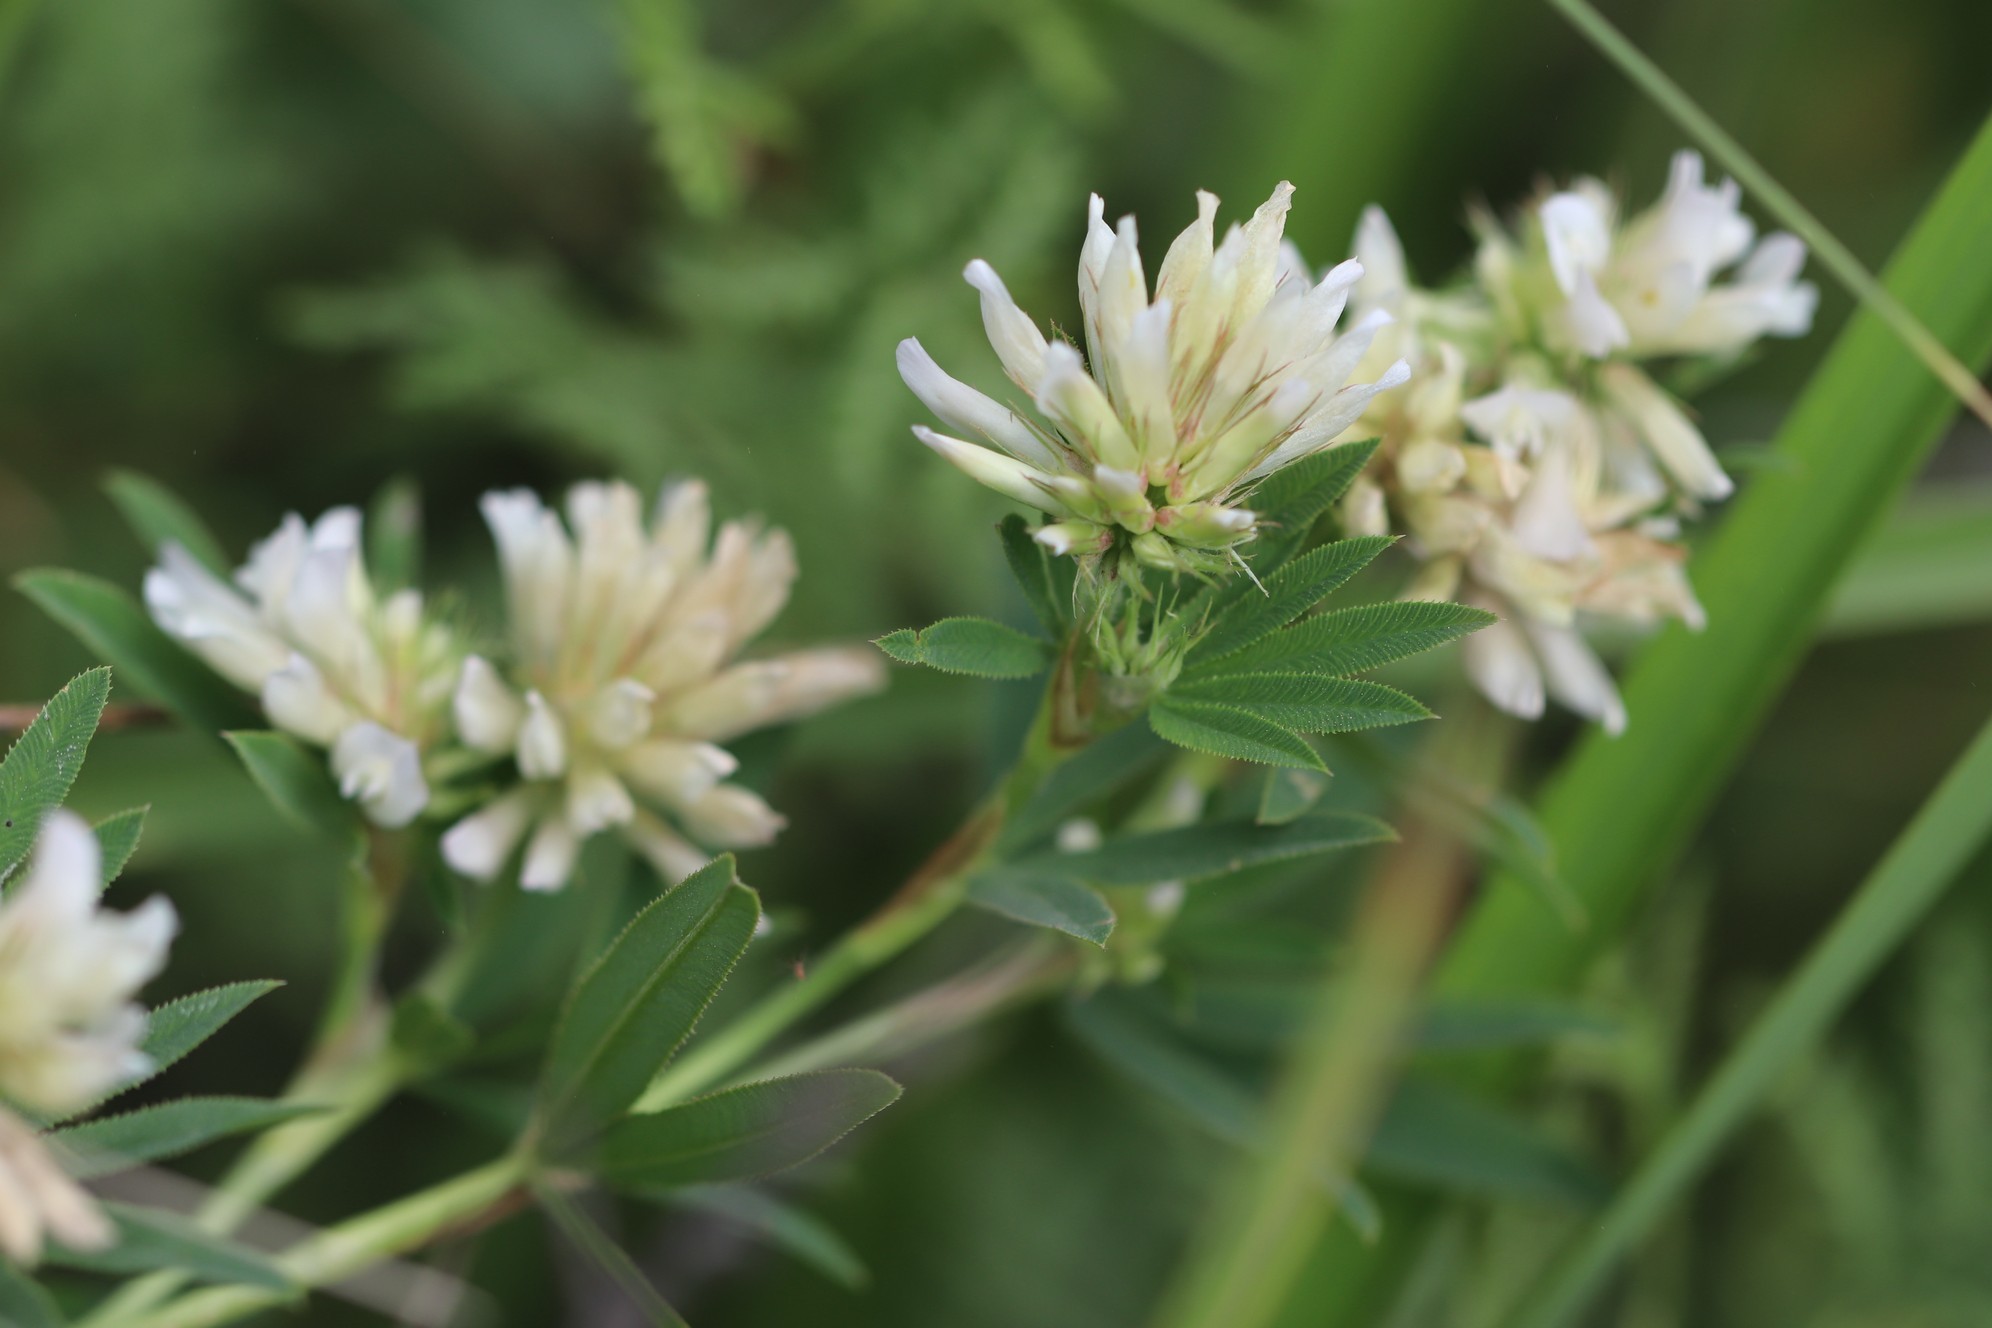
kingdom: Plantae
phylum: Tracheophyta
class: Magnoliopsida
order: Fabales
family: Fabaceae
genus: Trifolium
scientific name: Trifolium lupinaster
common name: Lupine clover
